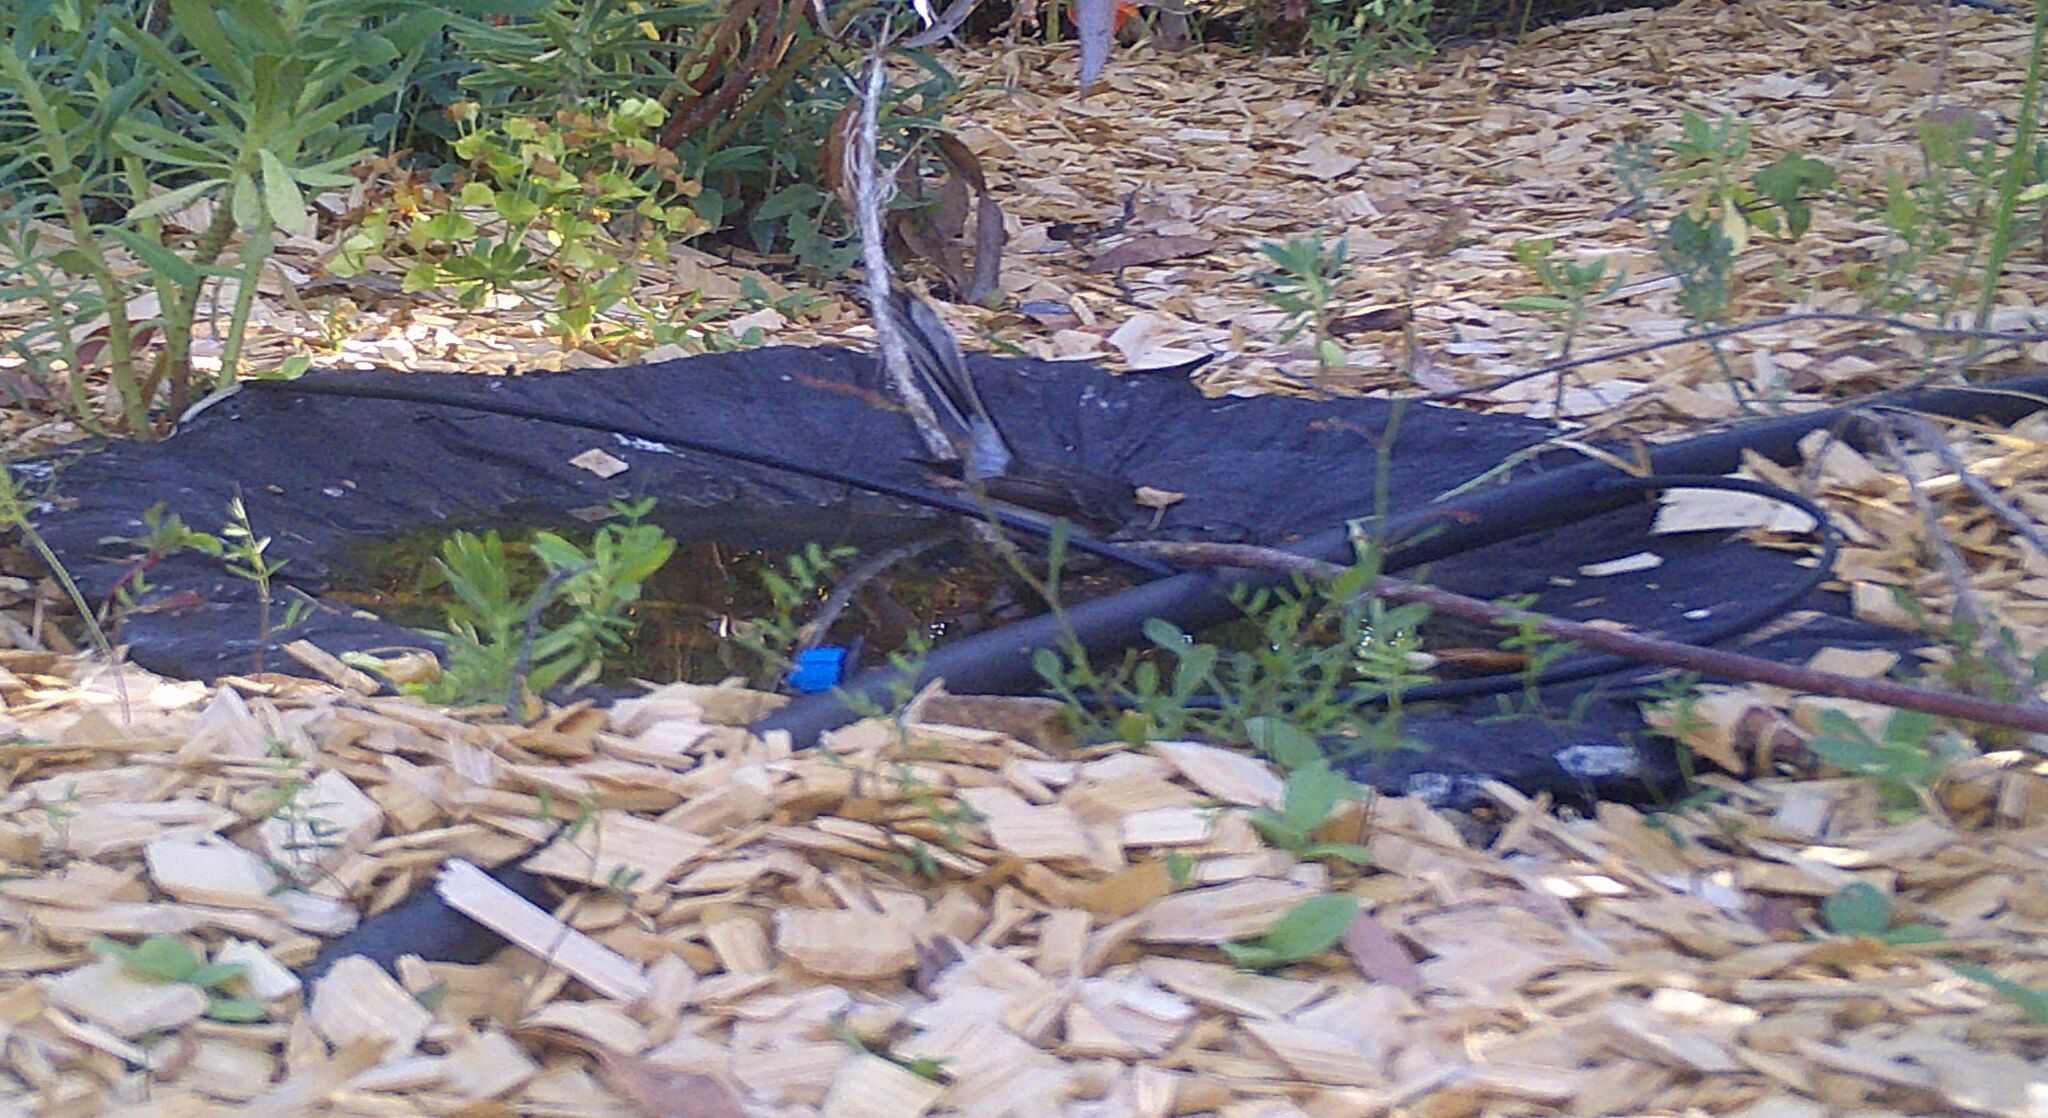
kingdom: Animalia
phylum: Chordata
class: Aves
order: Passeriformes
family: Rhipiduridae
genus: Rhipidura
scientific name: Rhipidura albiscapa
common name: Grey fantail
